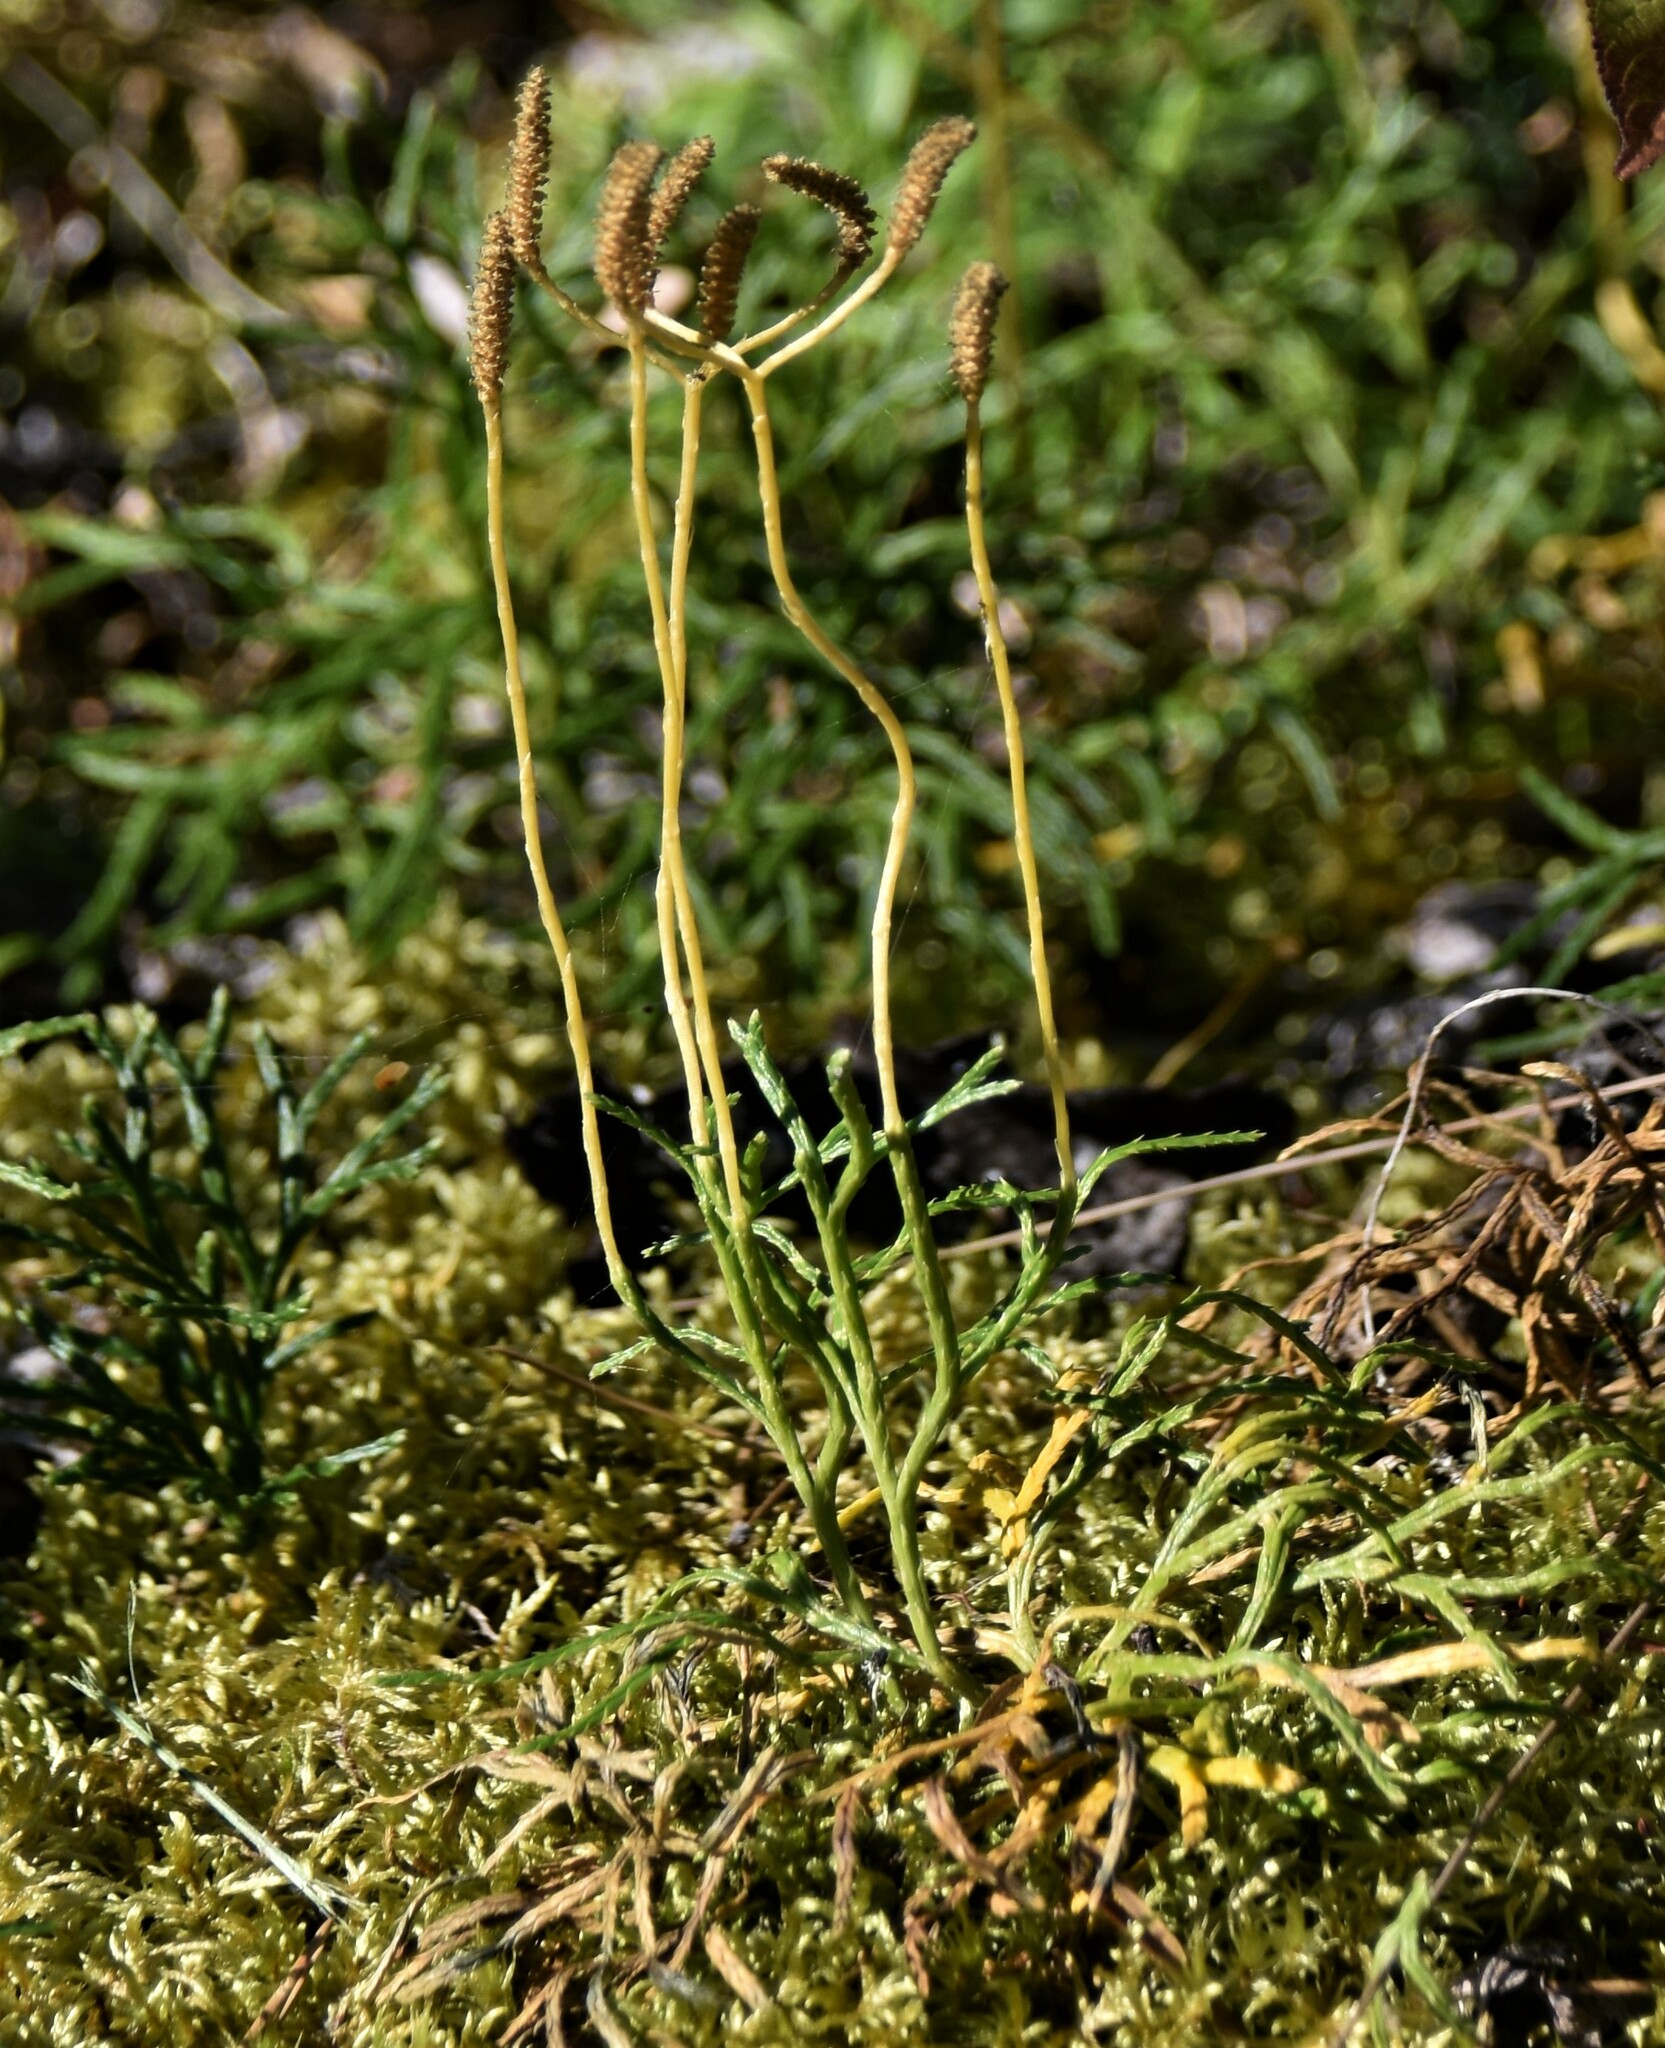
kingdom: Plantae
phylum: Tracheophyta
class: Lycopodiopsida
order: Lycopodiales
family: Lycopodiaceae
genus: Diphasiastrum
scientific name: Diphasiastrum complanatum
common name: Northern running-pine
